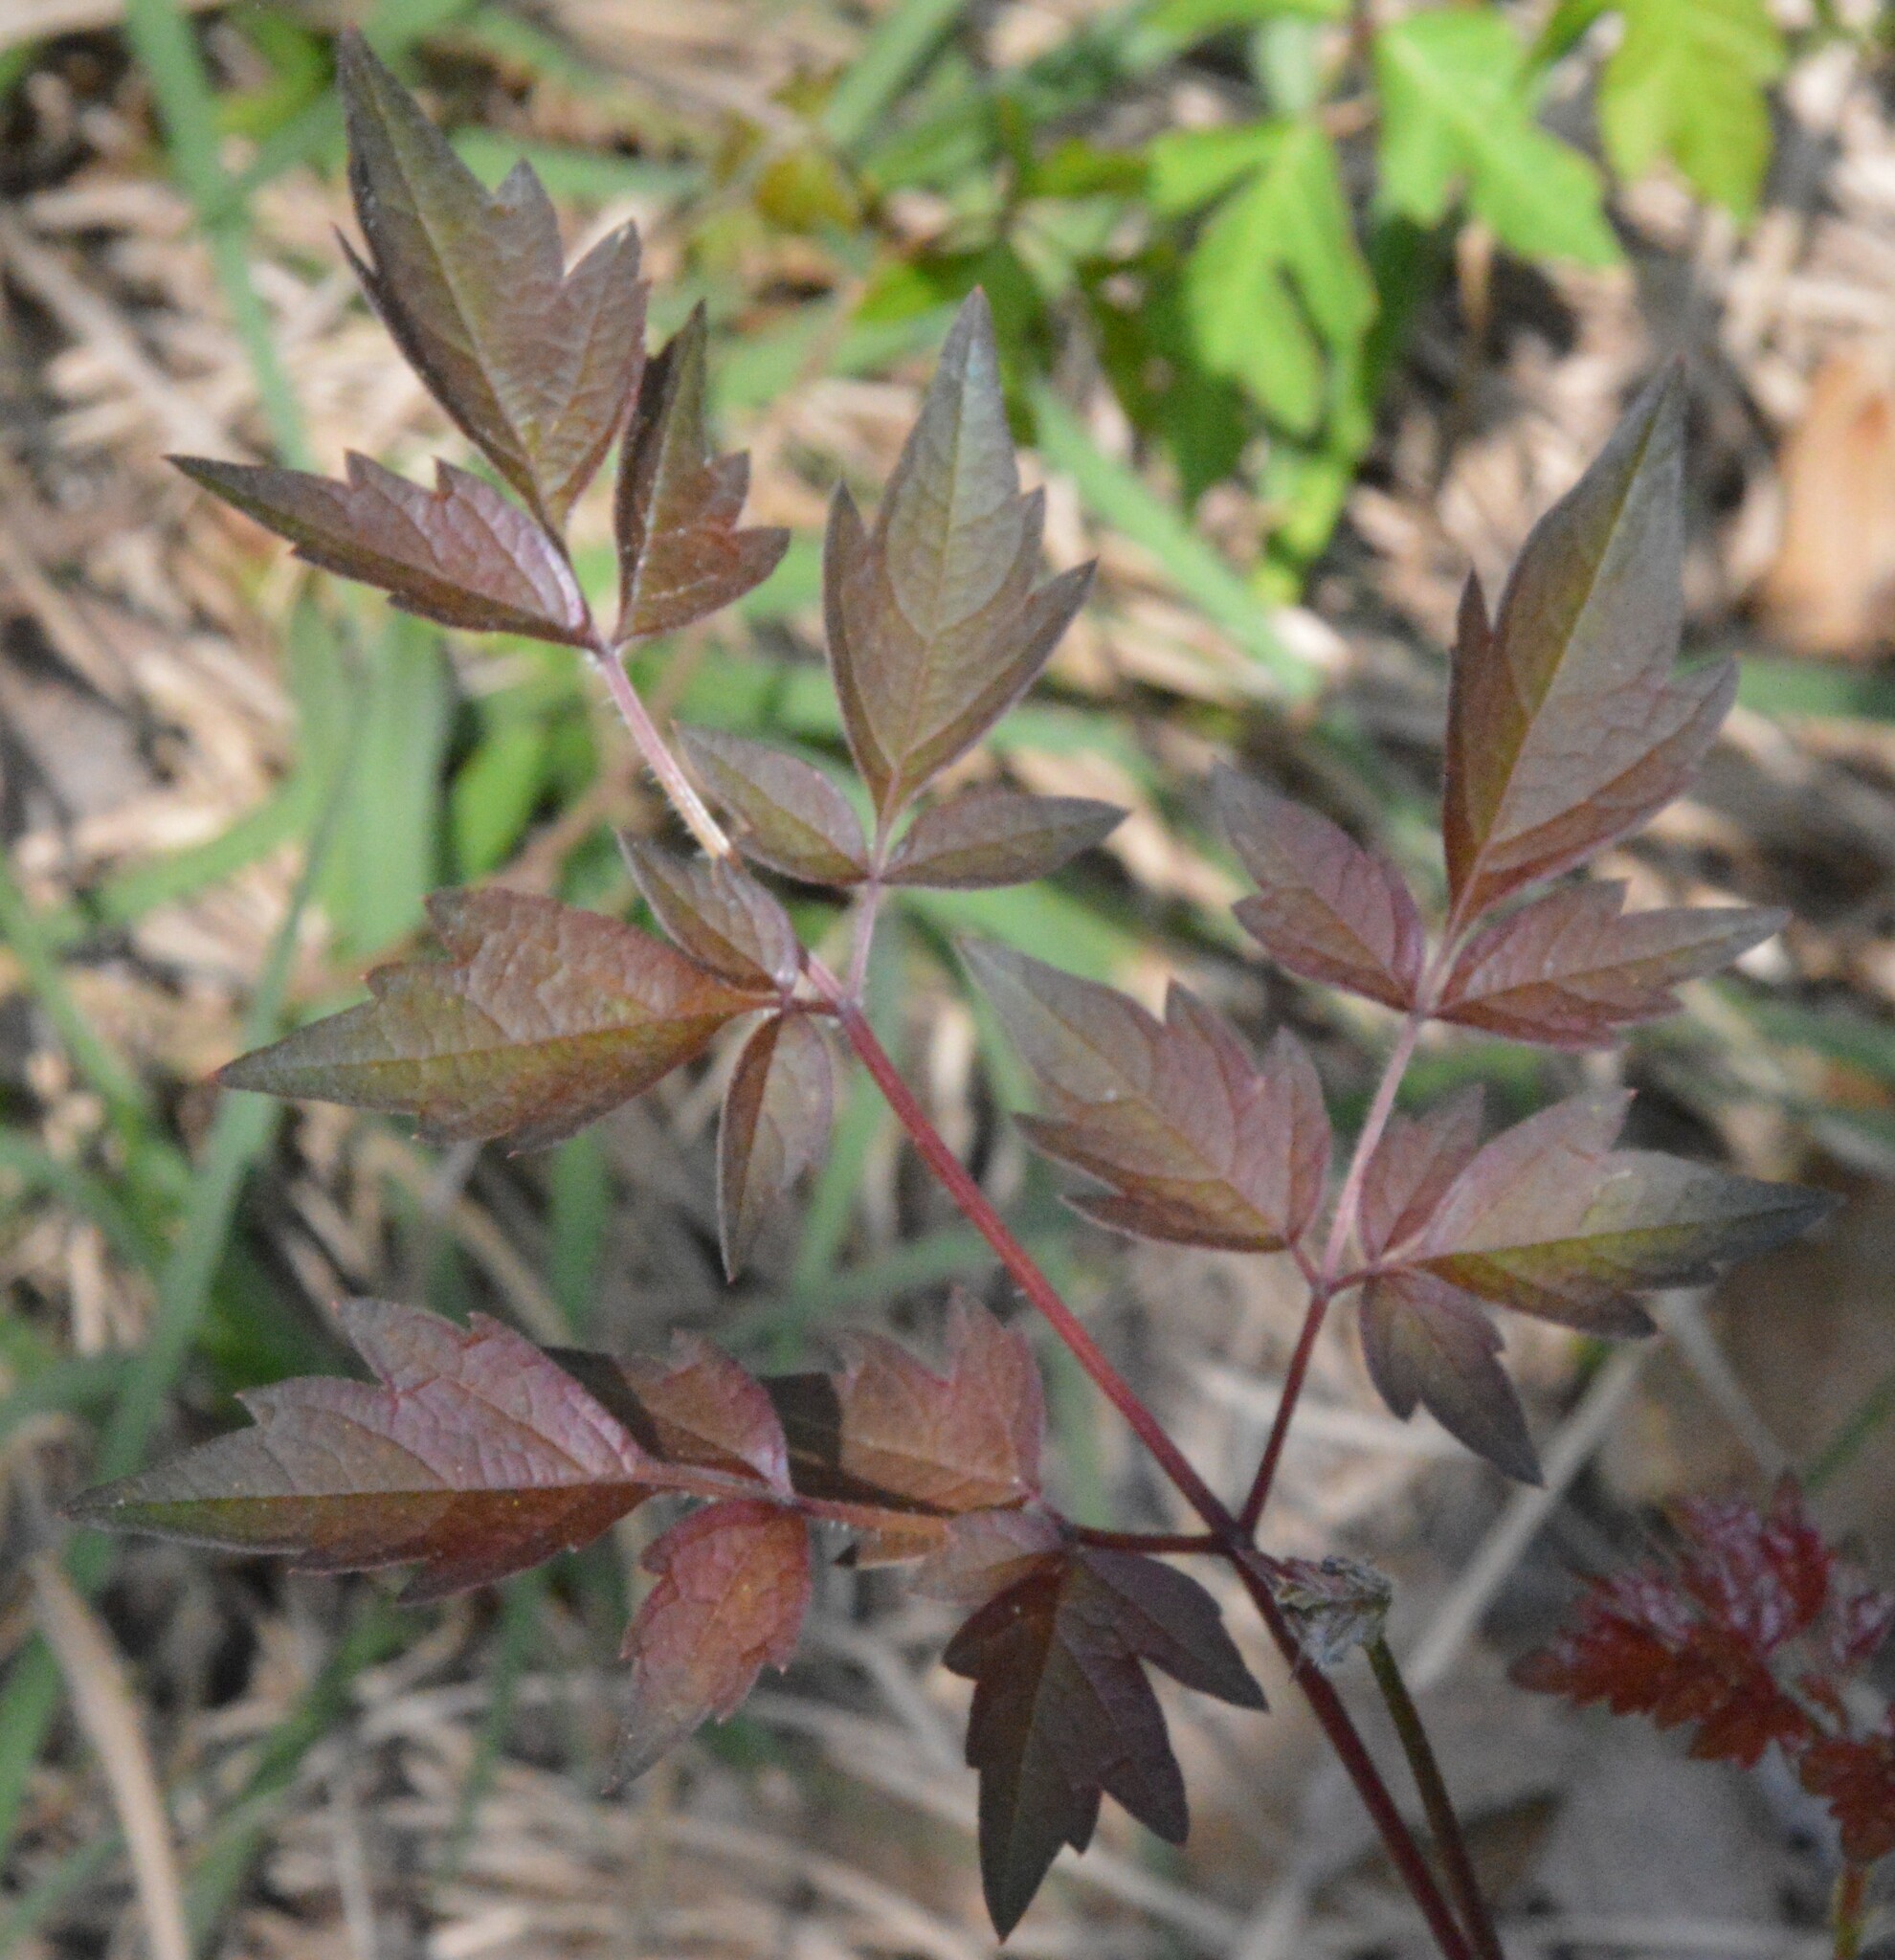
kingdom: Plantae
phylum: Tracheophyta
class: Magnoliopsida
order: Vitales
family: Vitaceae
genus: Nekemias
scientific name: Nekemias arborea
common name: Peppervine
